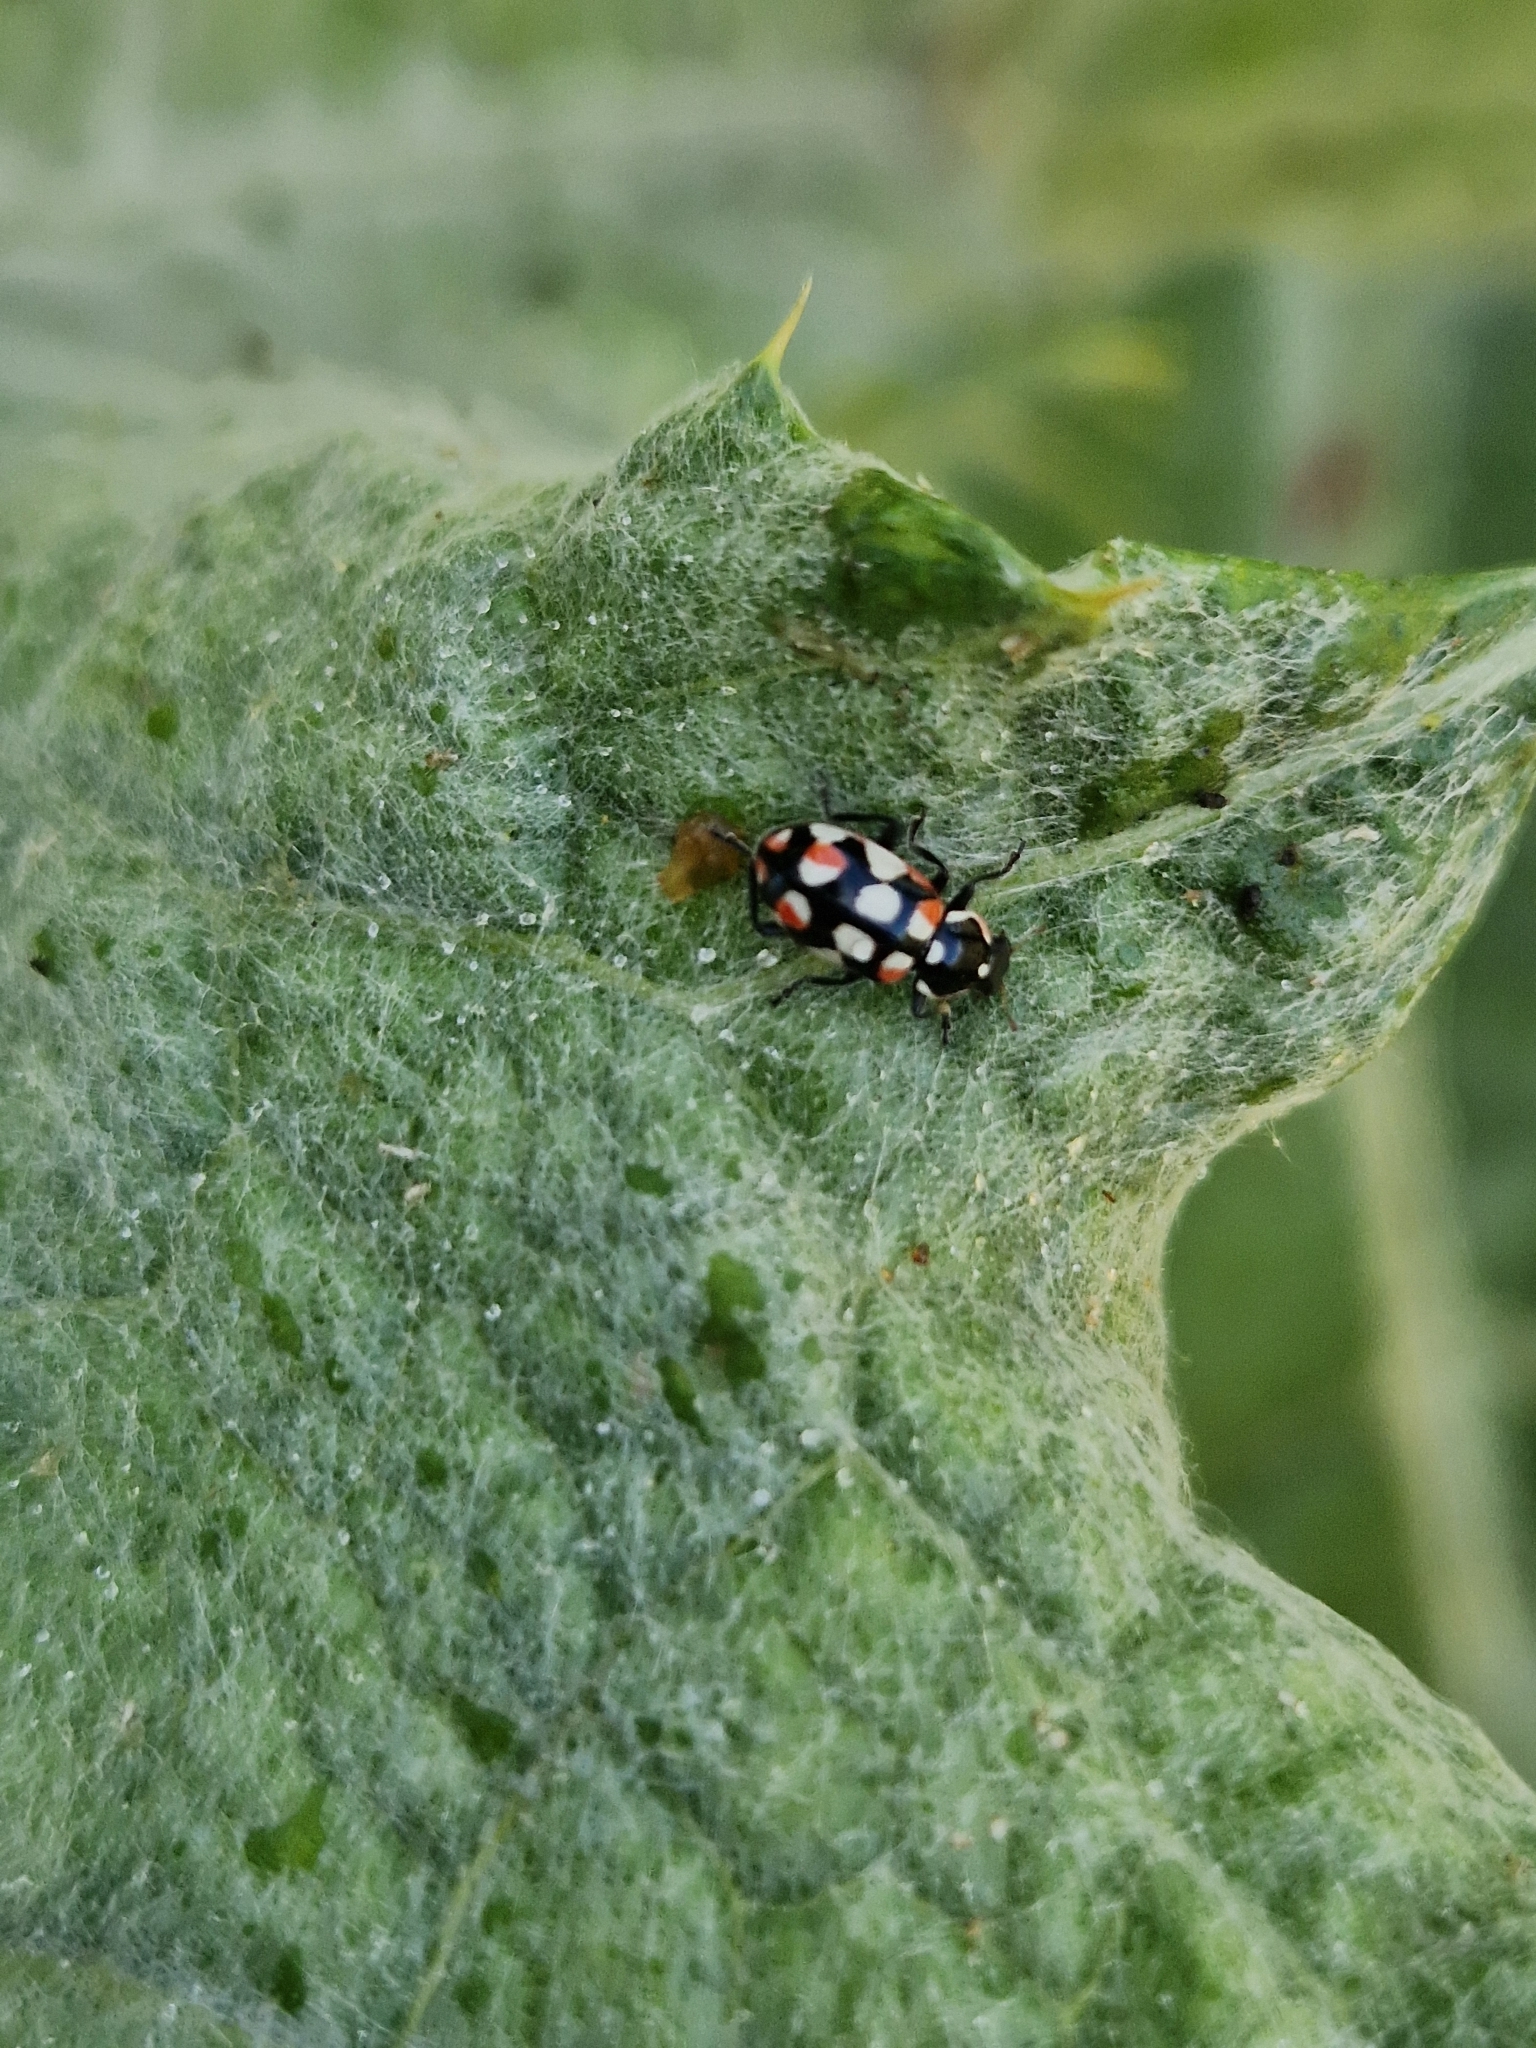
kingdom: Animalia
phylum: Arthropoda
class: Insecta
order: Coleoptera
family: Coccinellidae
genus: Eriopis
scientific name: Eriopis connexa
